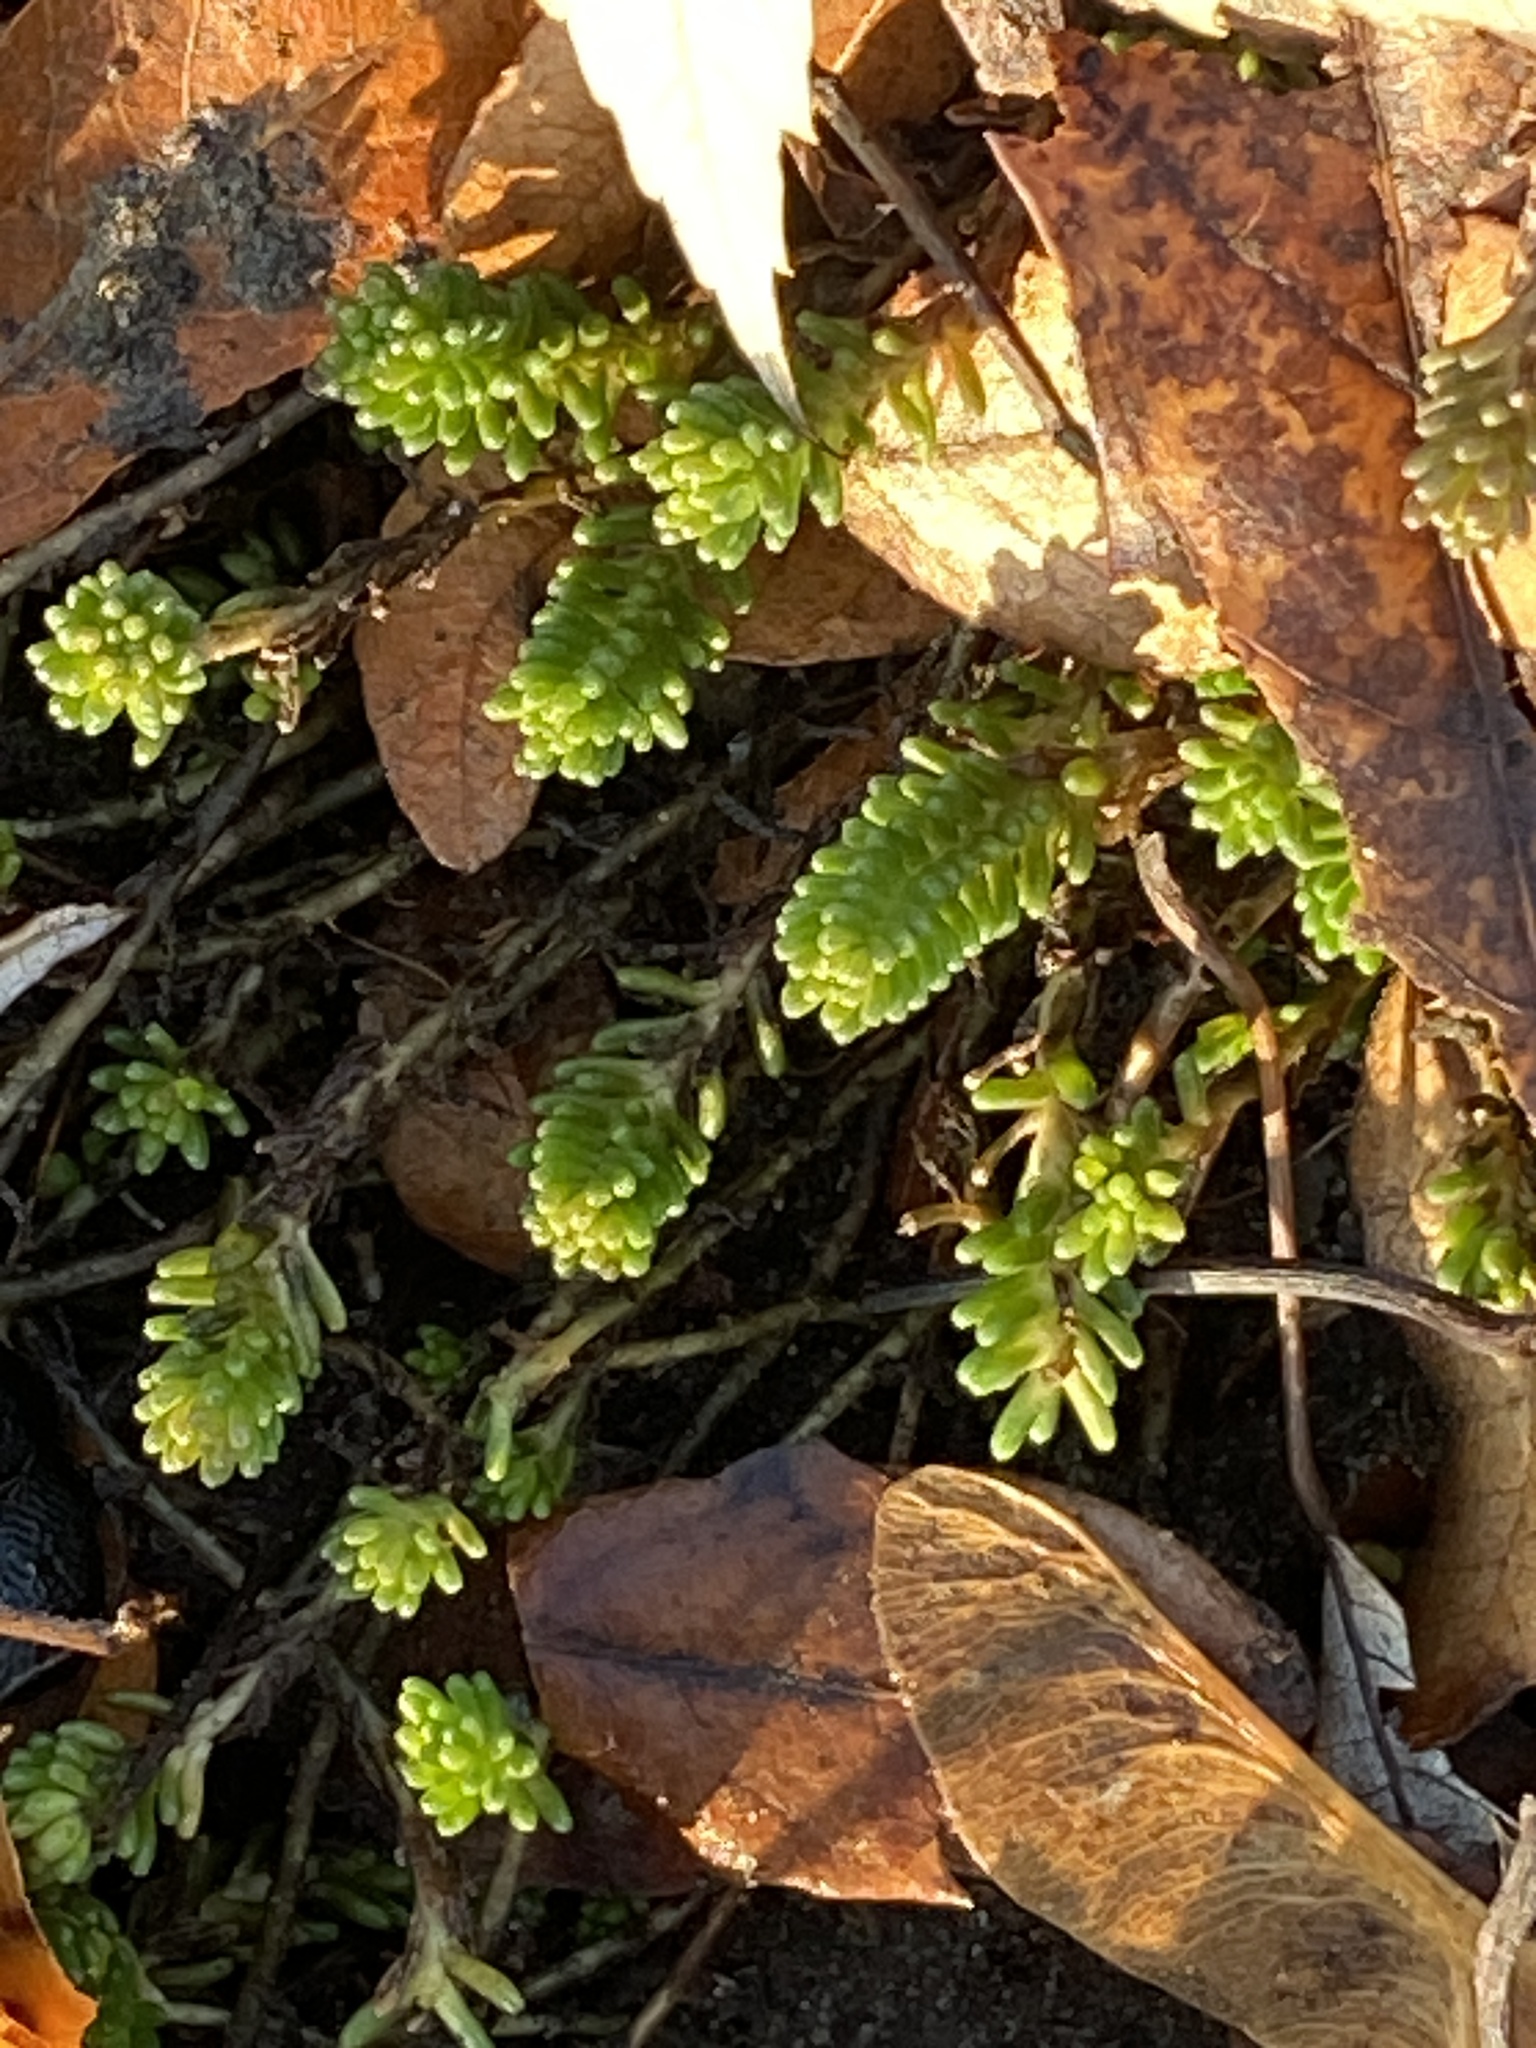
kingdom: Plantae
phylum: Tracheophyta
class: Magnoliopsida
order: Saxifragales
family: Crassulaceae
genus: Sedum
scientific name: Sedum sexangulare
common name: Tasteless stonecrop
